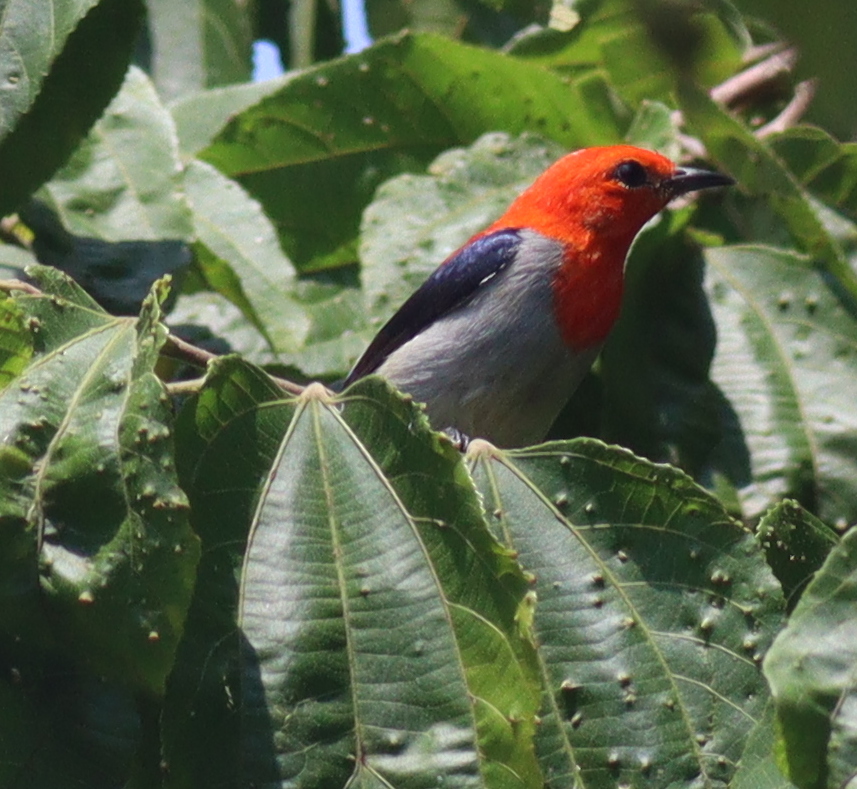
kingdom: Animalia
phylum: Chordata
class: Aves
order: Passeriformes
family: Dicaeidae
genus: Dicaeum
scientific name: Dicaeum trochileum
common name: Scarlet-headed flowerpecker
